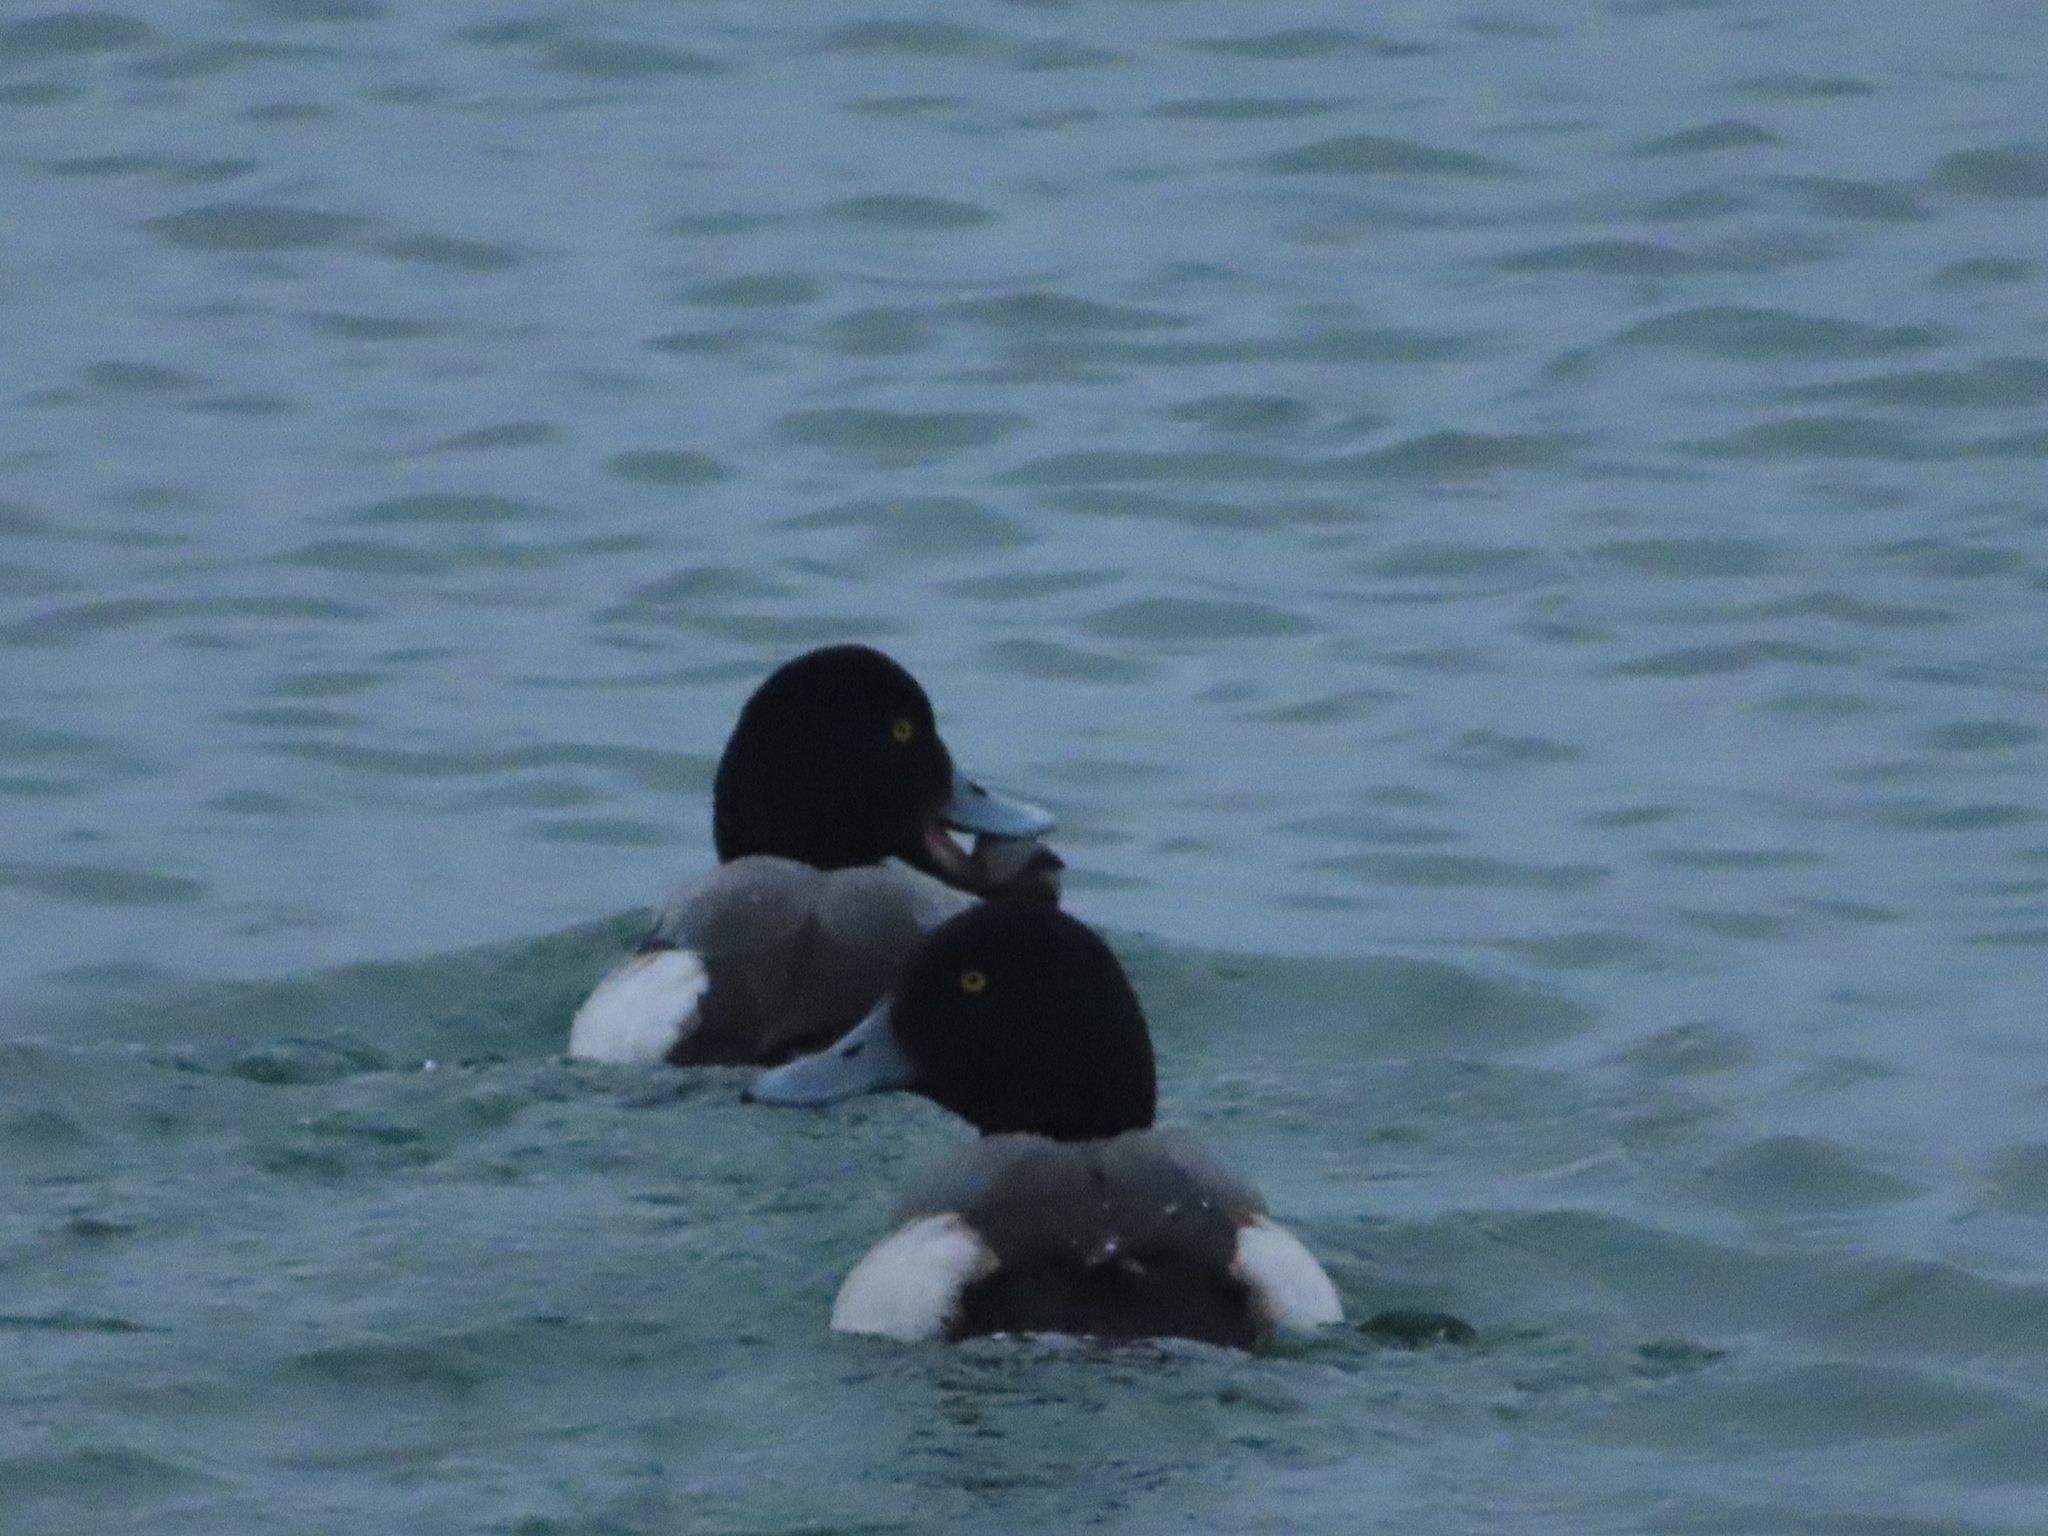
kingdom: Animalia
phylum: Chordata
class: Aves
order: Anseriformes
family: Anatidae
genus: Aythya
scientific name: Aythya marila
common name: Greater scaup
